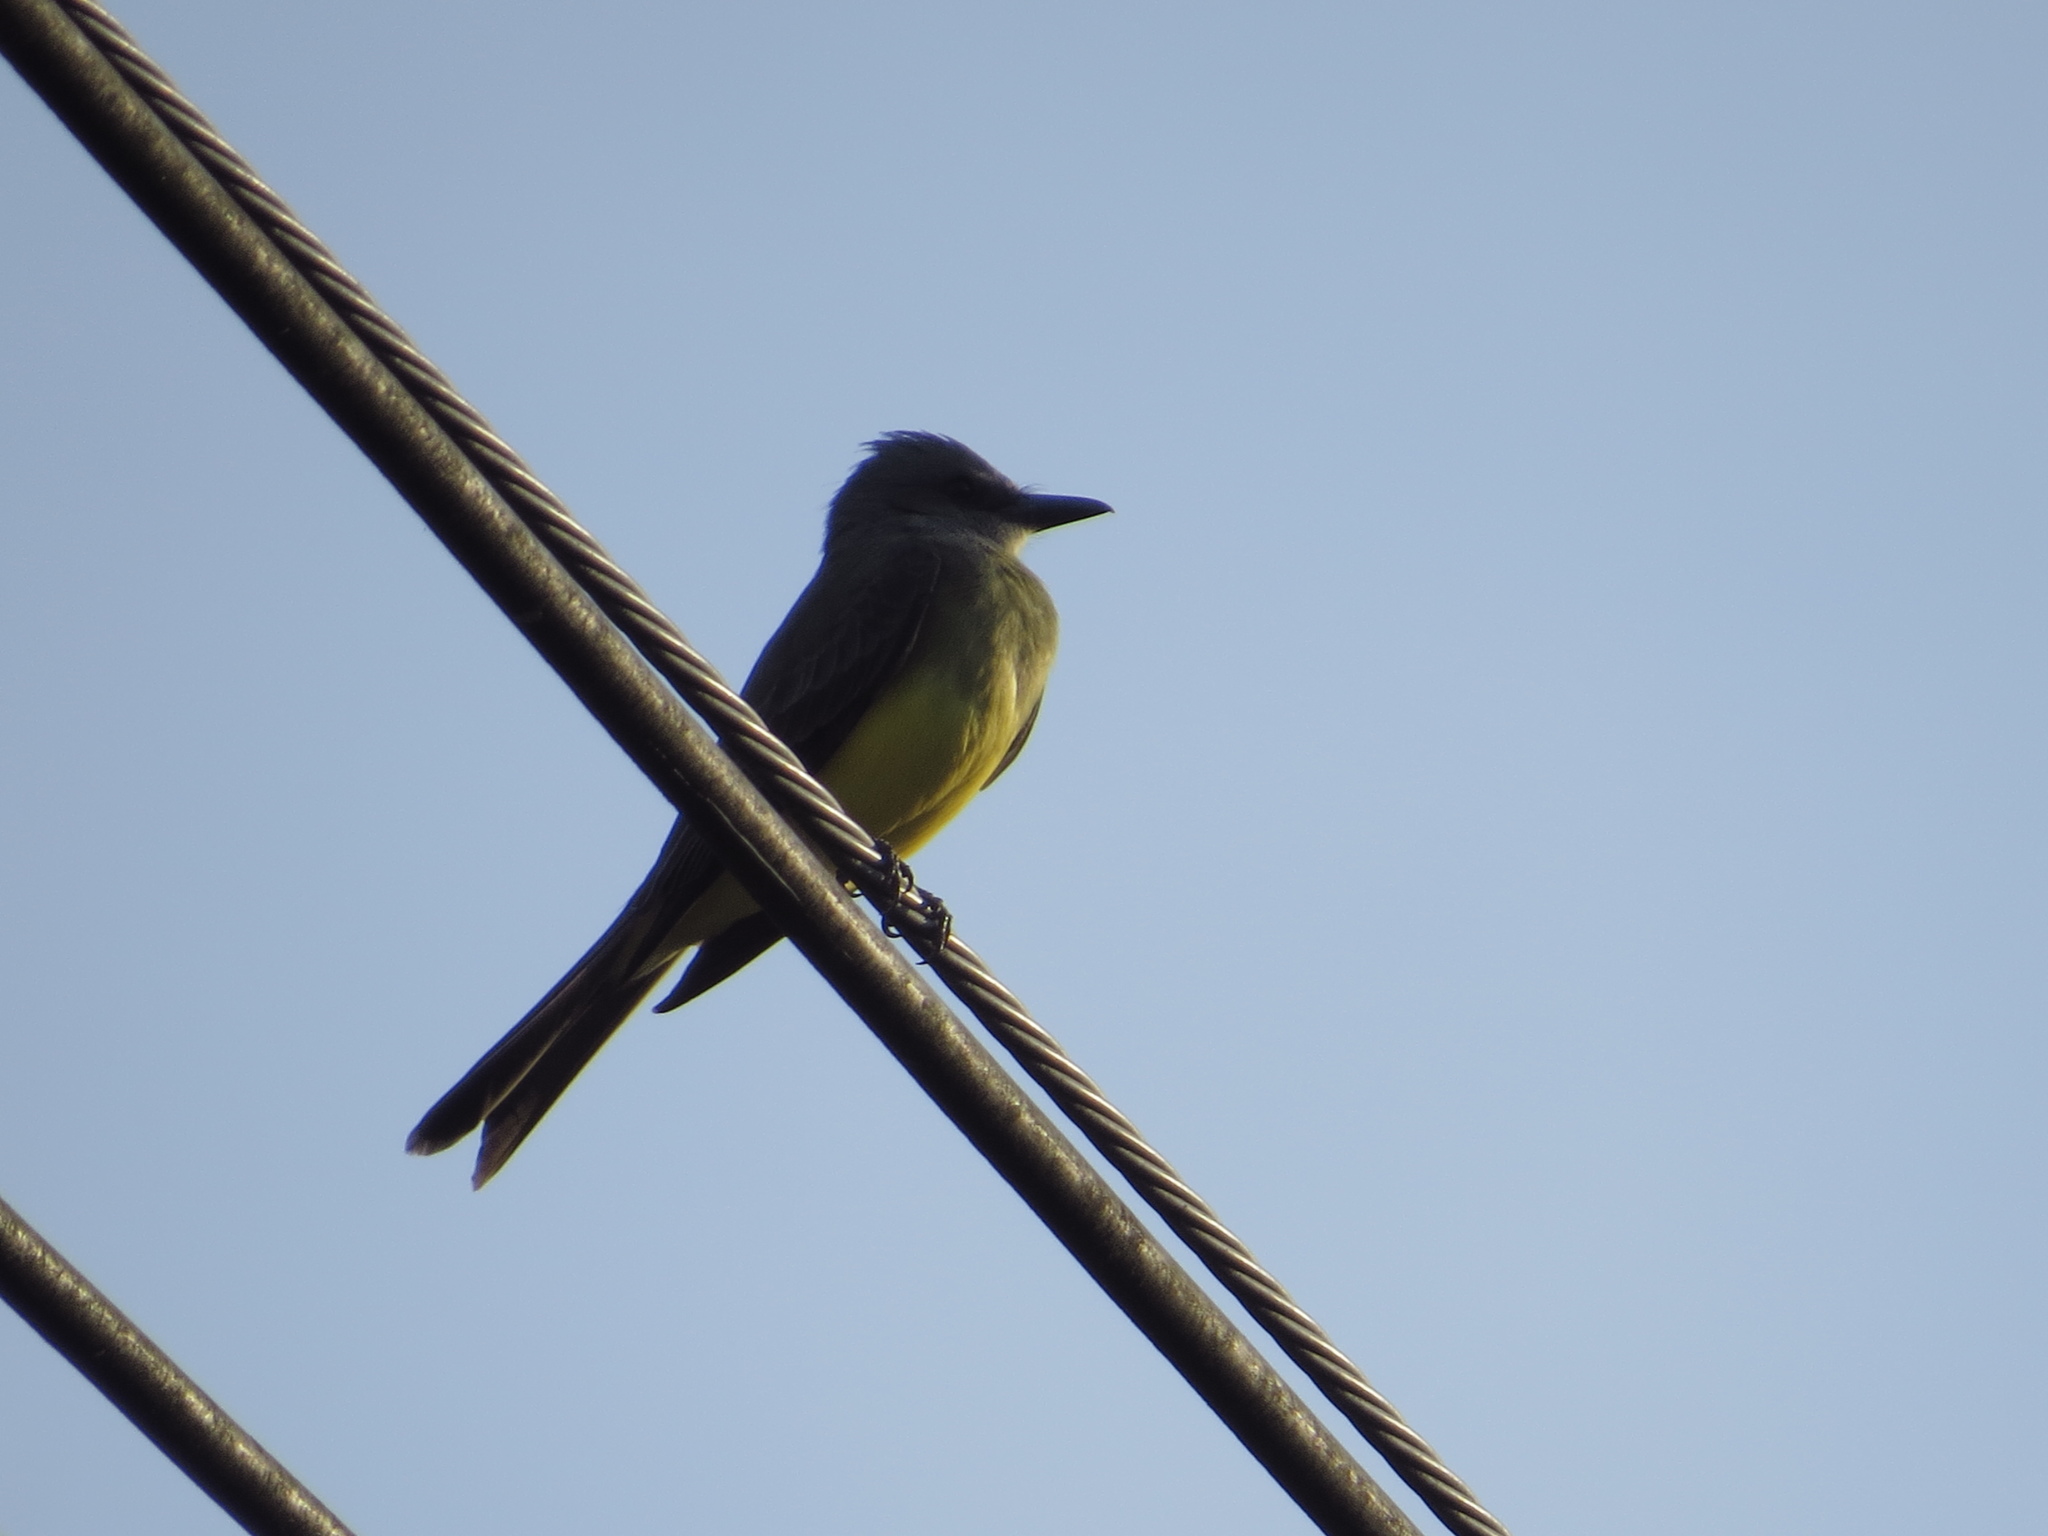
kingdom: Animalia
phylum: Chordata
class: Aves
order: Passeriformes
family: Tyrannidae
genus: Tyrannus
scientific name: Tyrannus melancholicus
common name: Tropical kingbird
